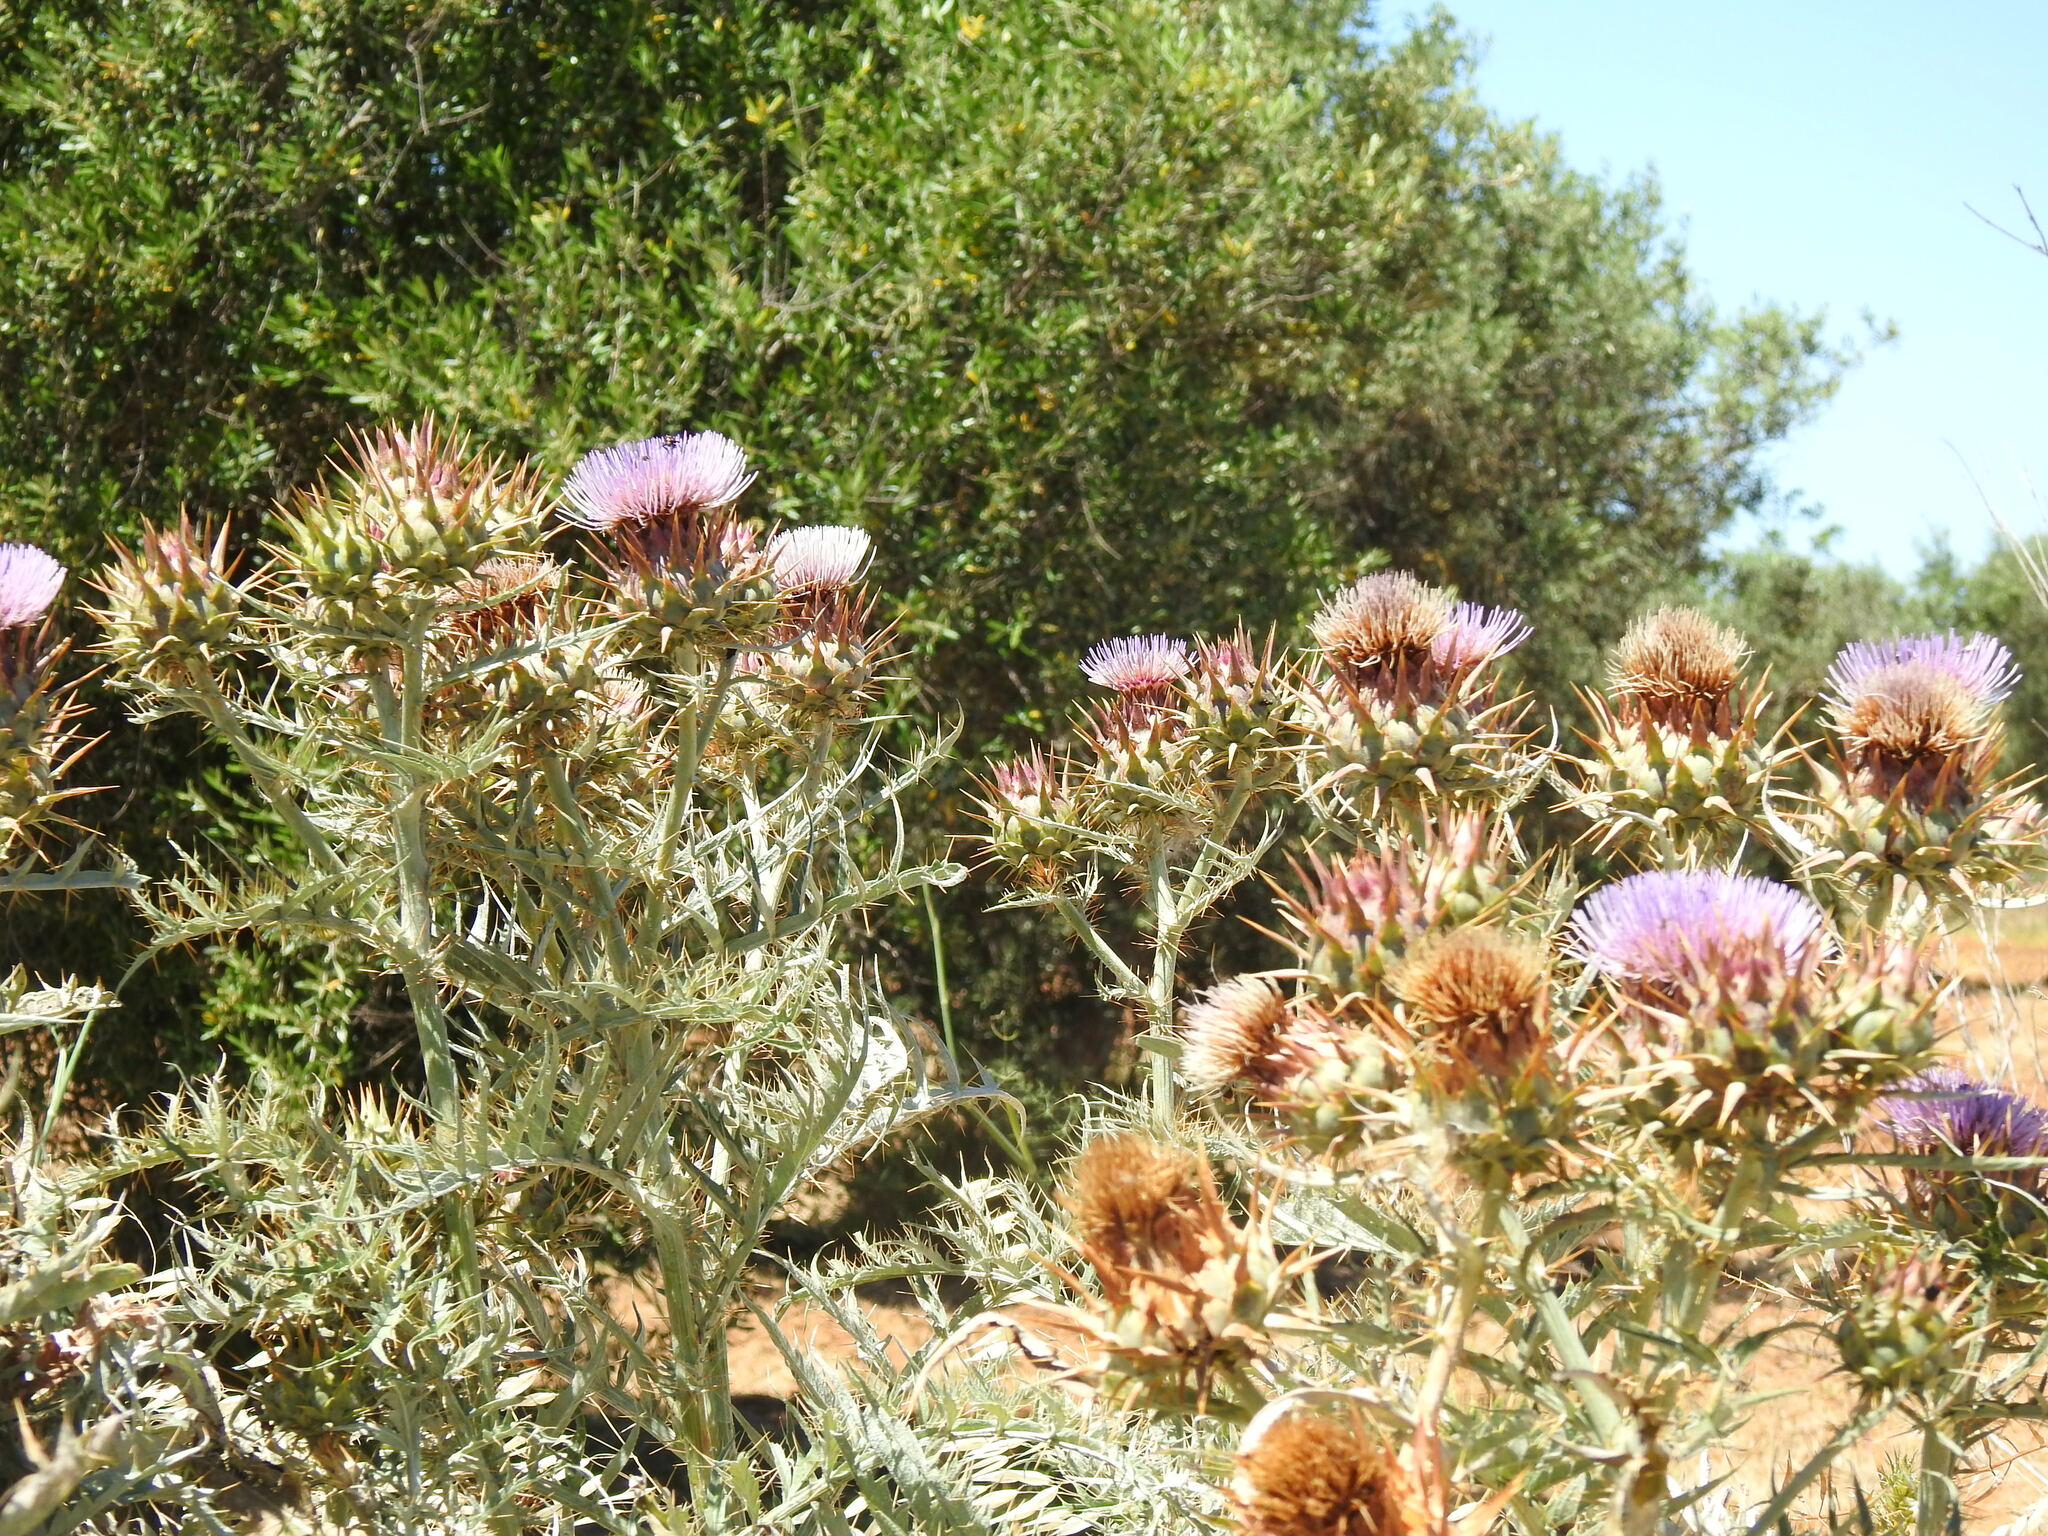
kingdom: Plantae
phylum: Tracheophyta
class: Magnoliopsida
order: Asterales
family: Asteraceae
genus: Cynara
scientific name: Cynara cardunculus
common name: Globe artichoke
